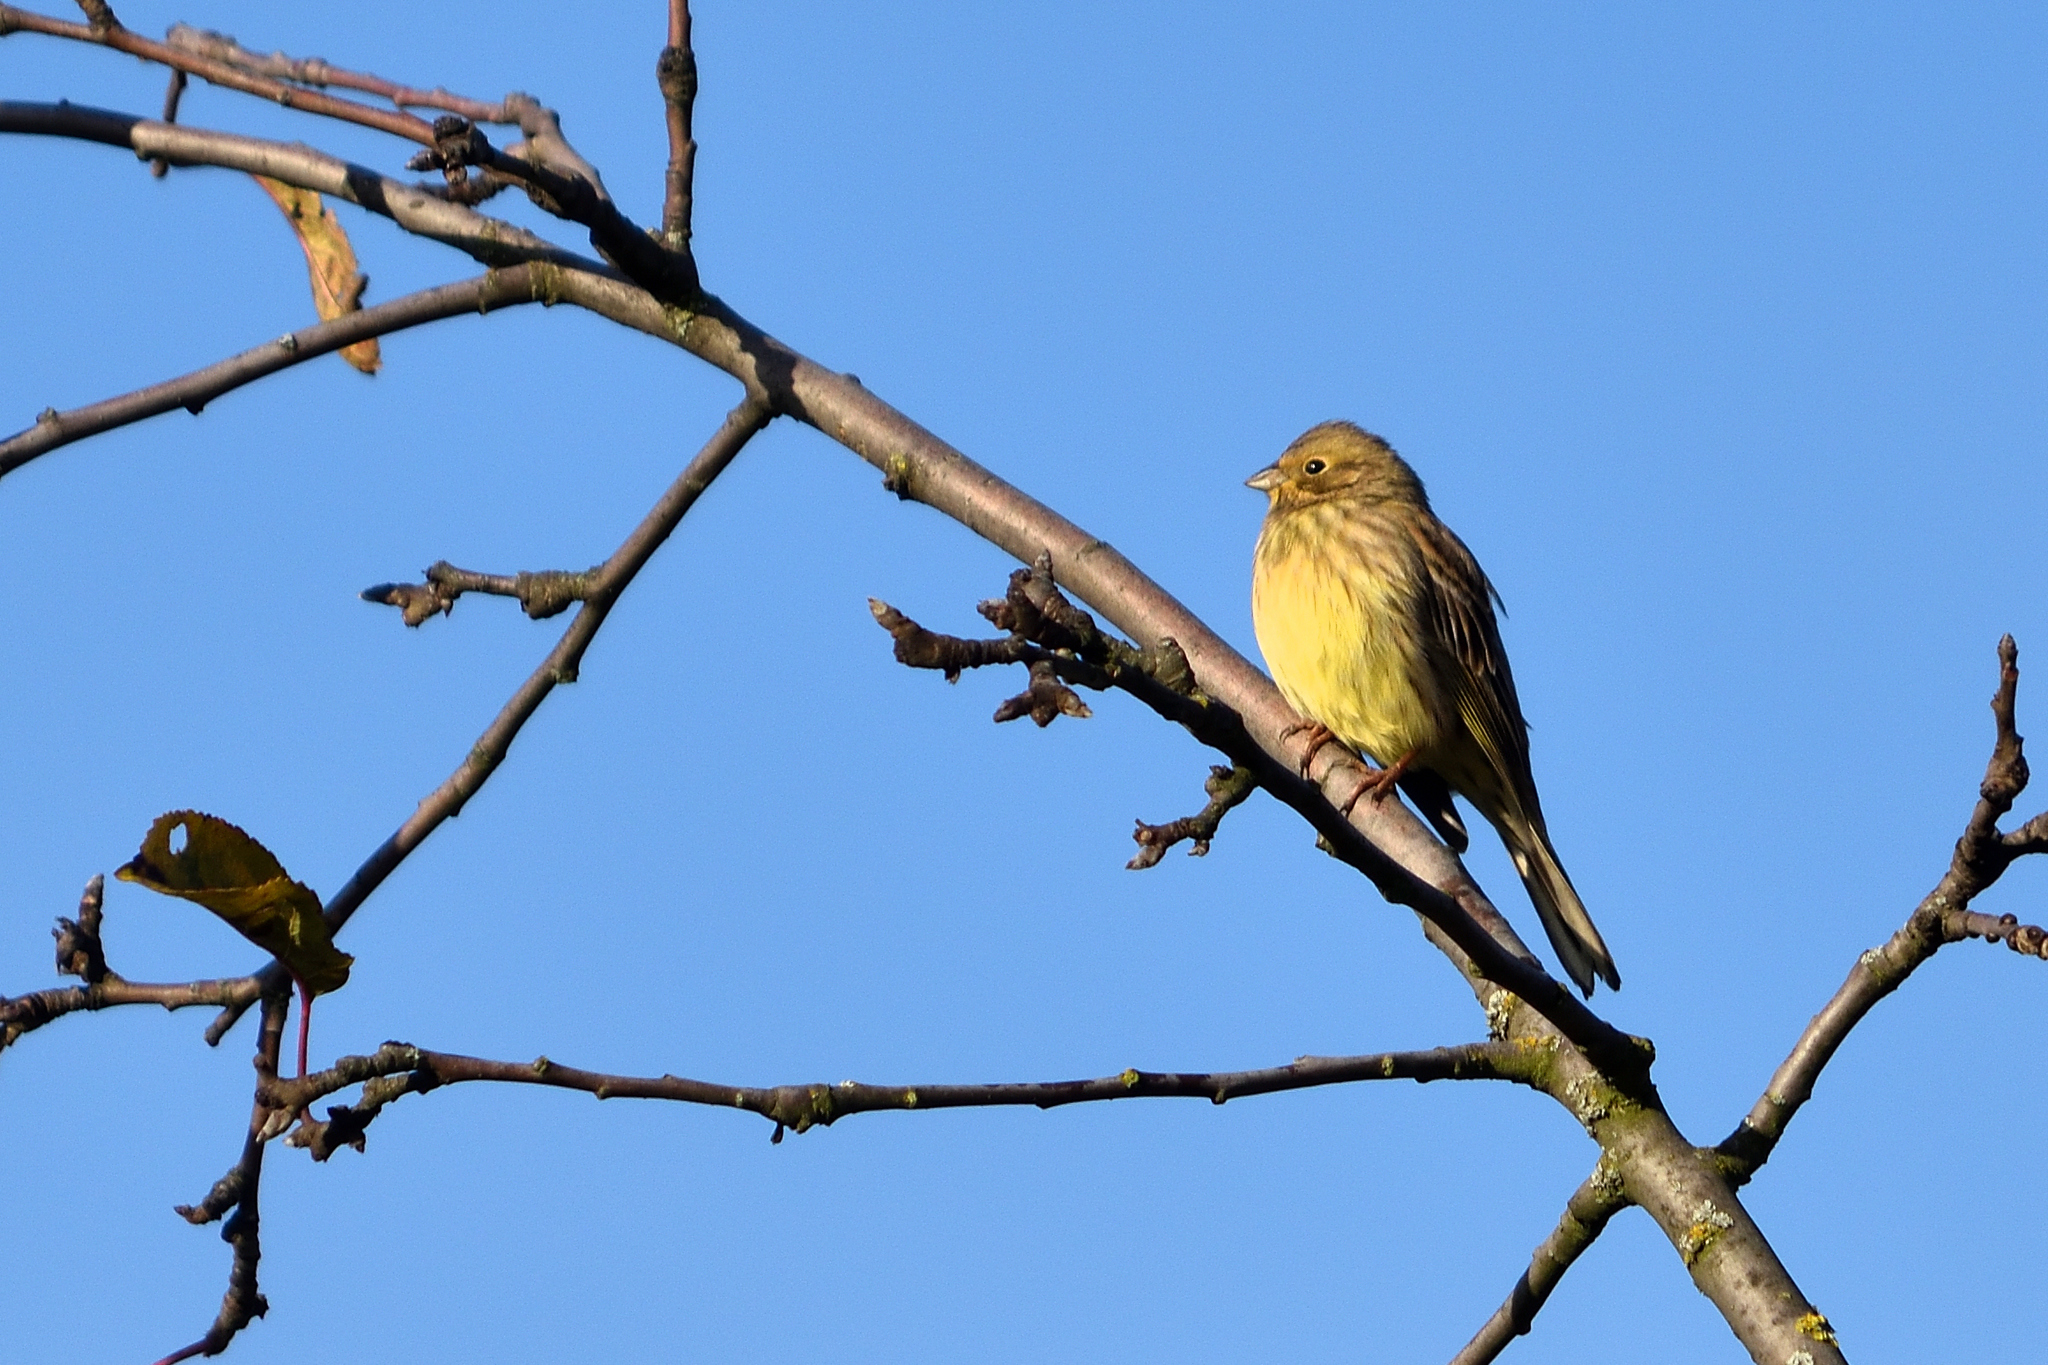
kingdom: Animalia
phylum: Chordata
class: Aves
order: Passeriformes
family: Emberizidae
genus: Emberiza
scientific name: Emberiza citrinella
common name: Yellowhammer
